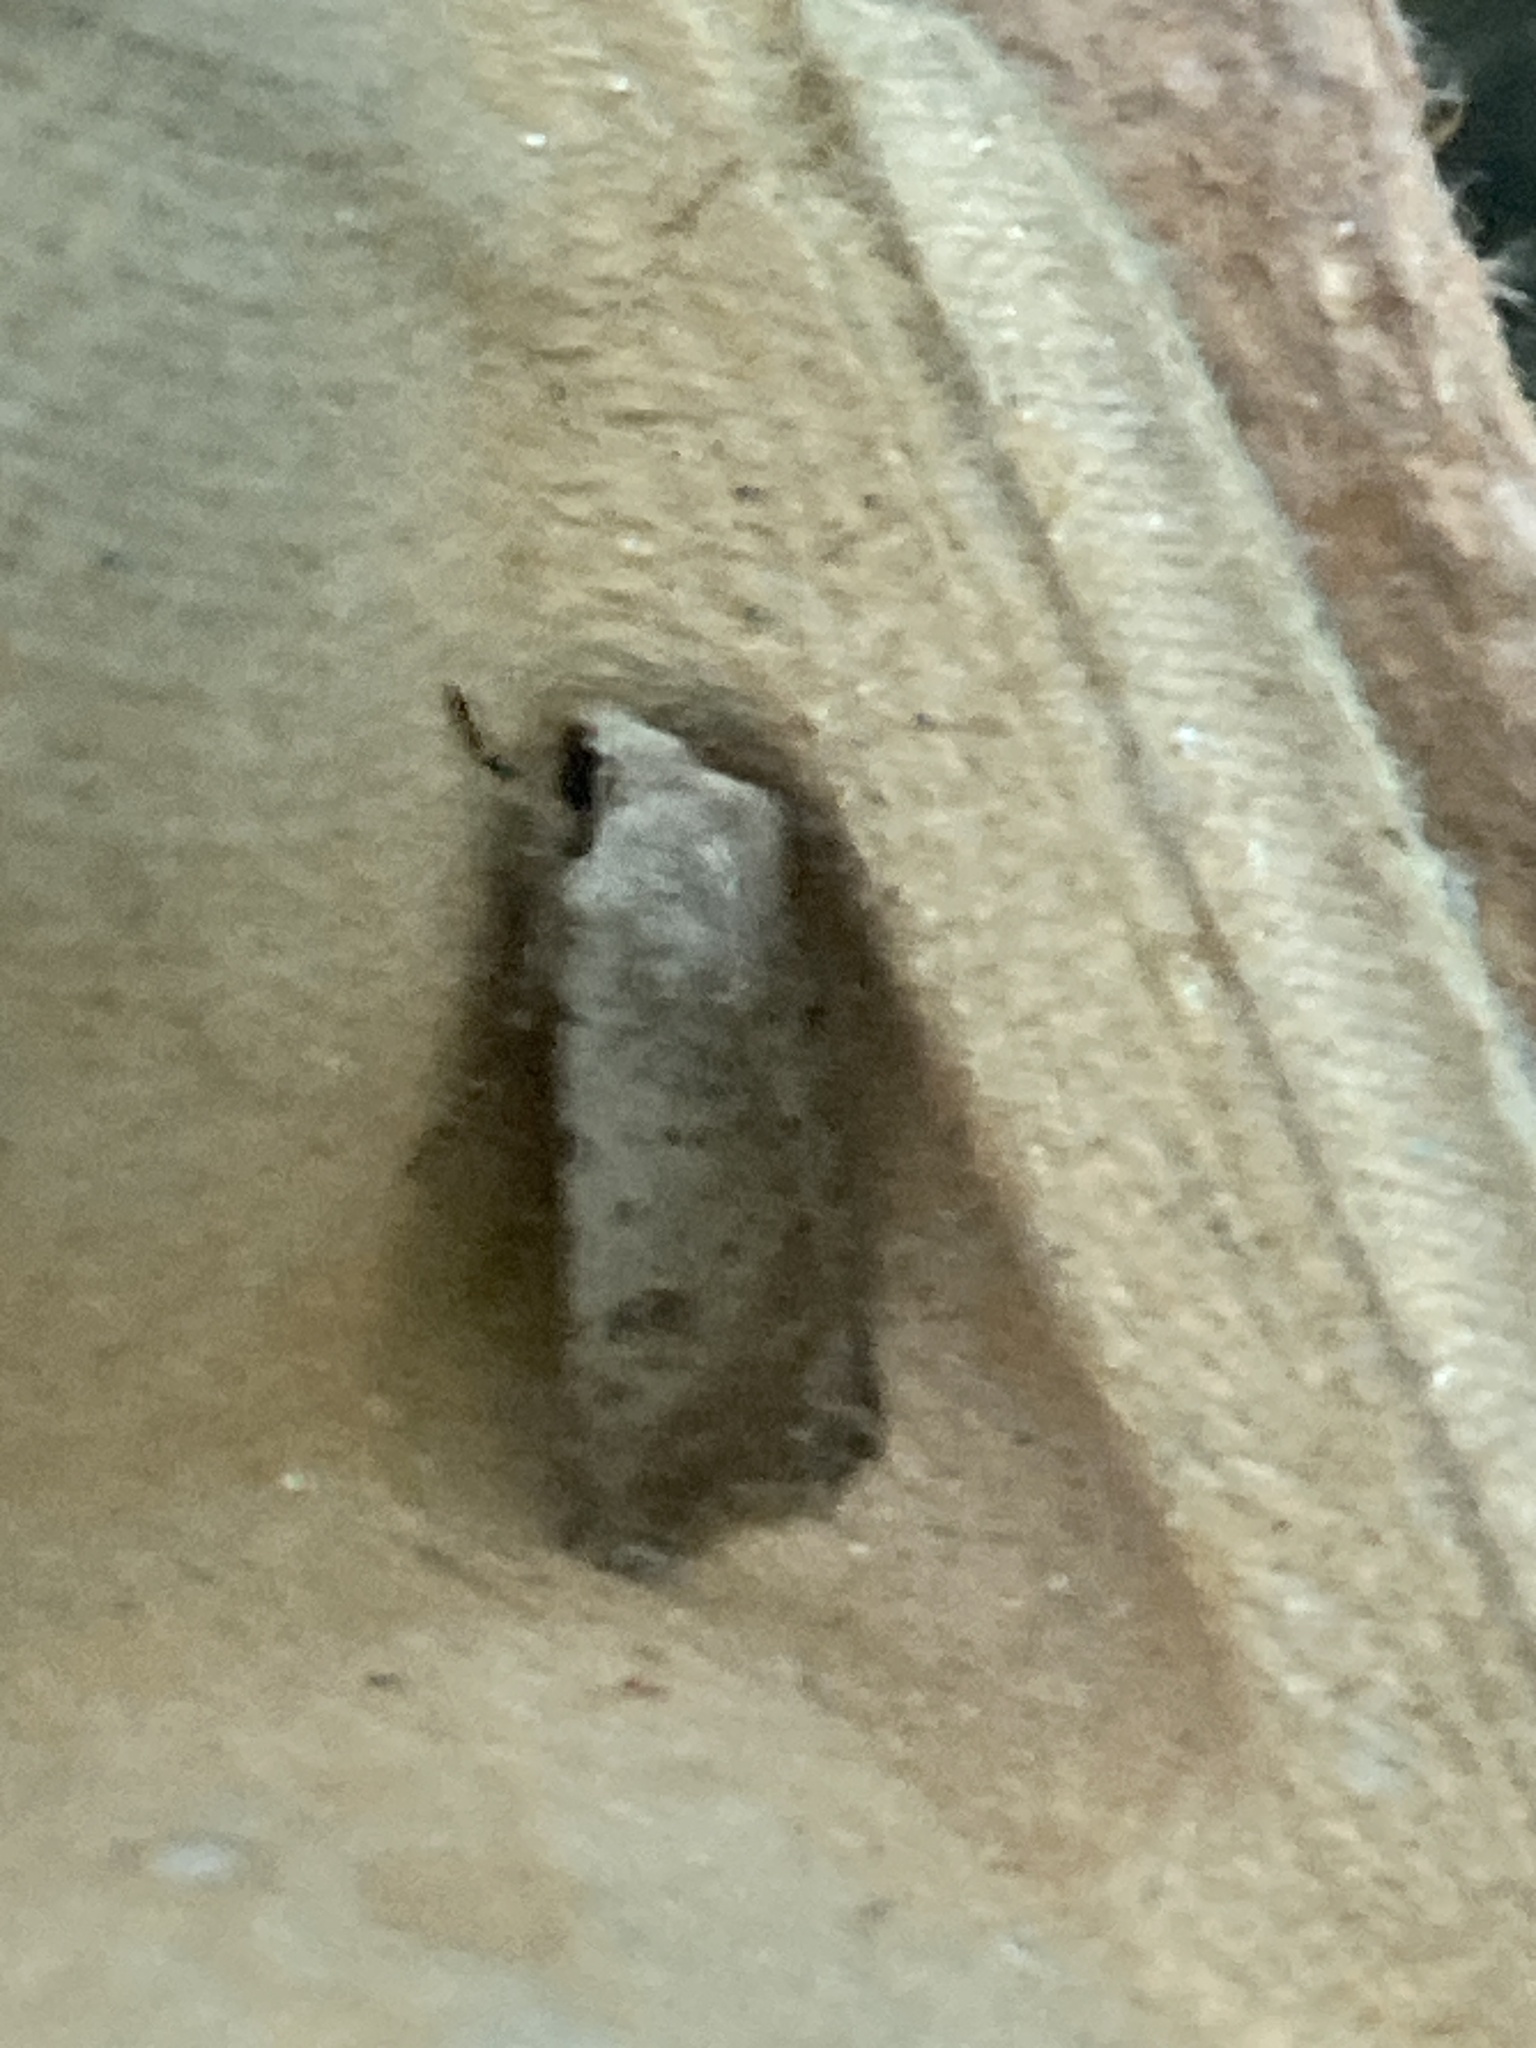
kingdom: Animalia
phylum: Arthropoda
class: Insecta
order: Lepidoptera
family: Noctuidae
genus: Caradrina
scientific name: Caradrina clavipalpis
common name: Pale mottled willow
